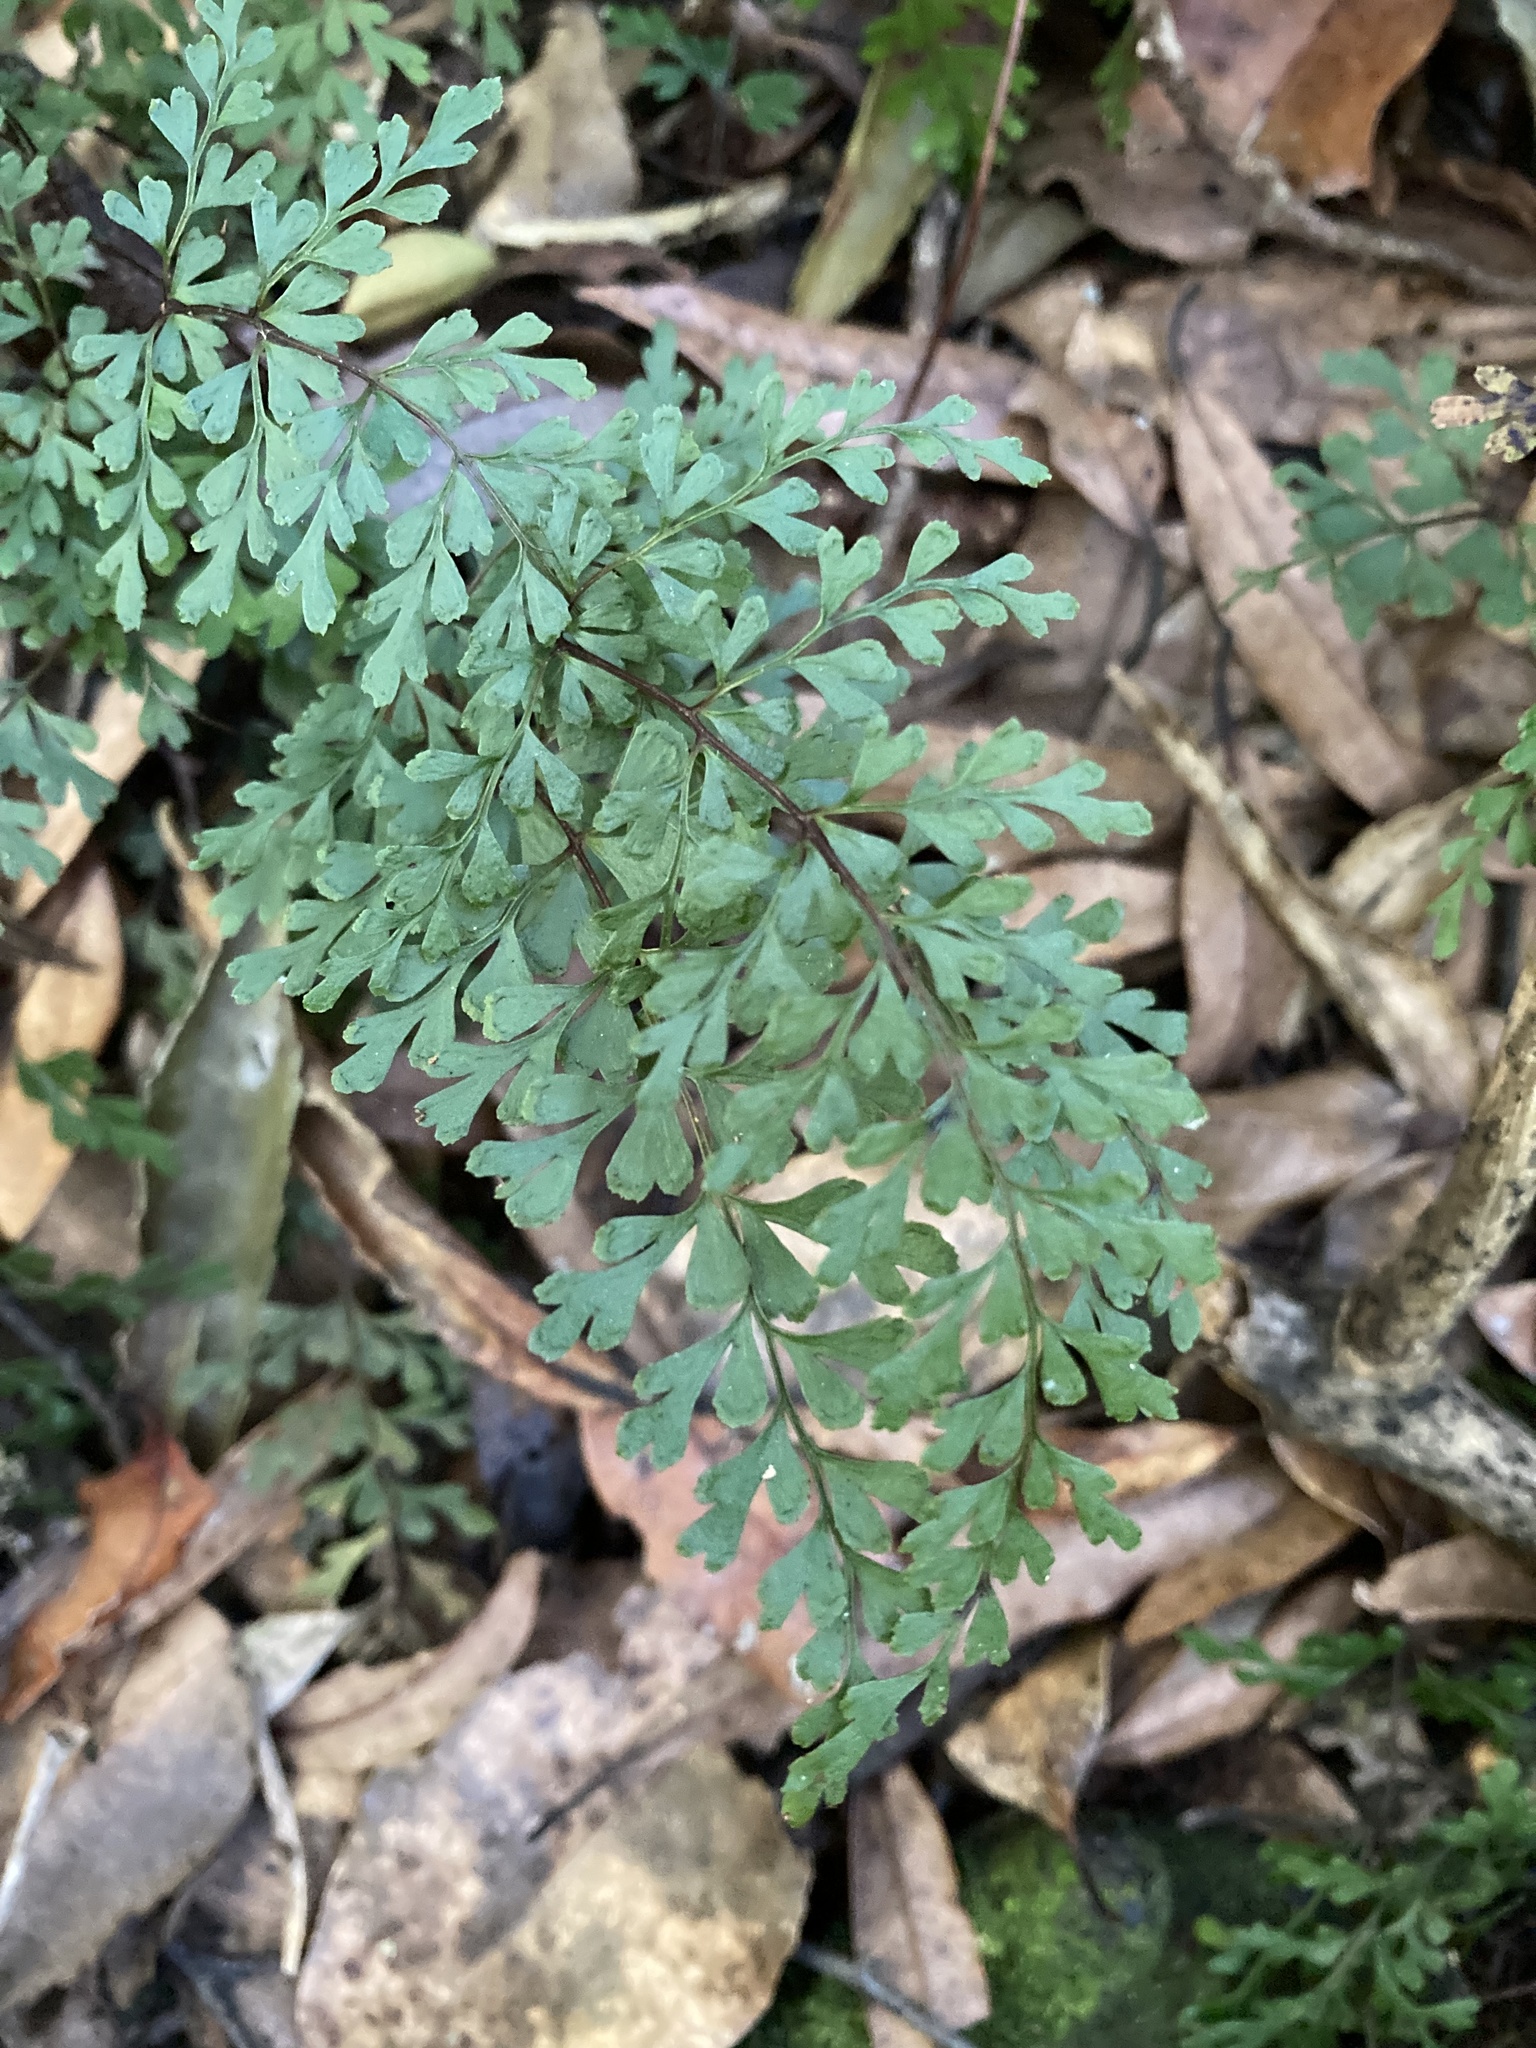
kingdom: Plantae
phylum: Tracheophyta
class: Polypodiopsida
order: Polypodiales
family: Lindsaeaceae
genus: Lindsaea
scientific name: Lindsaea trichomanoides
